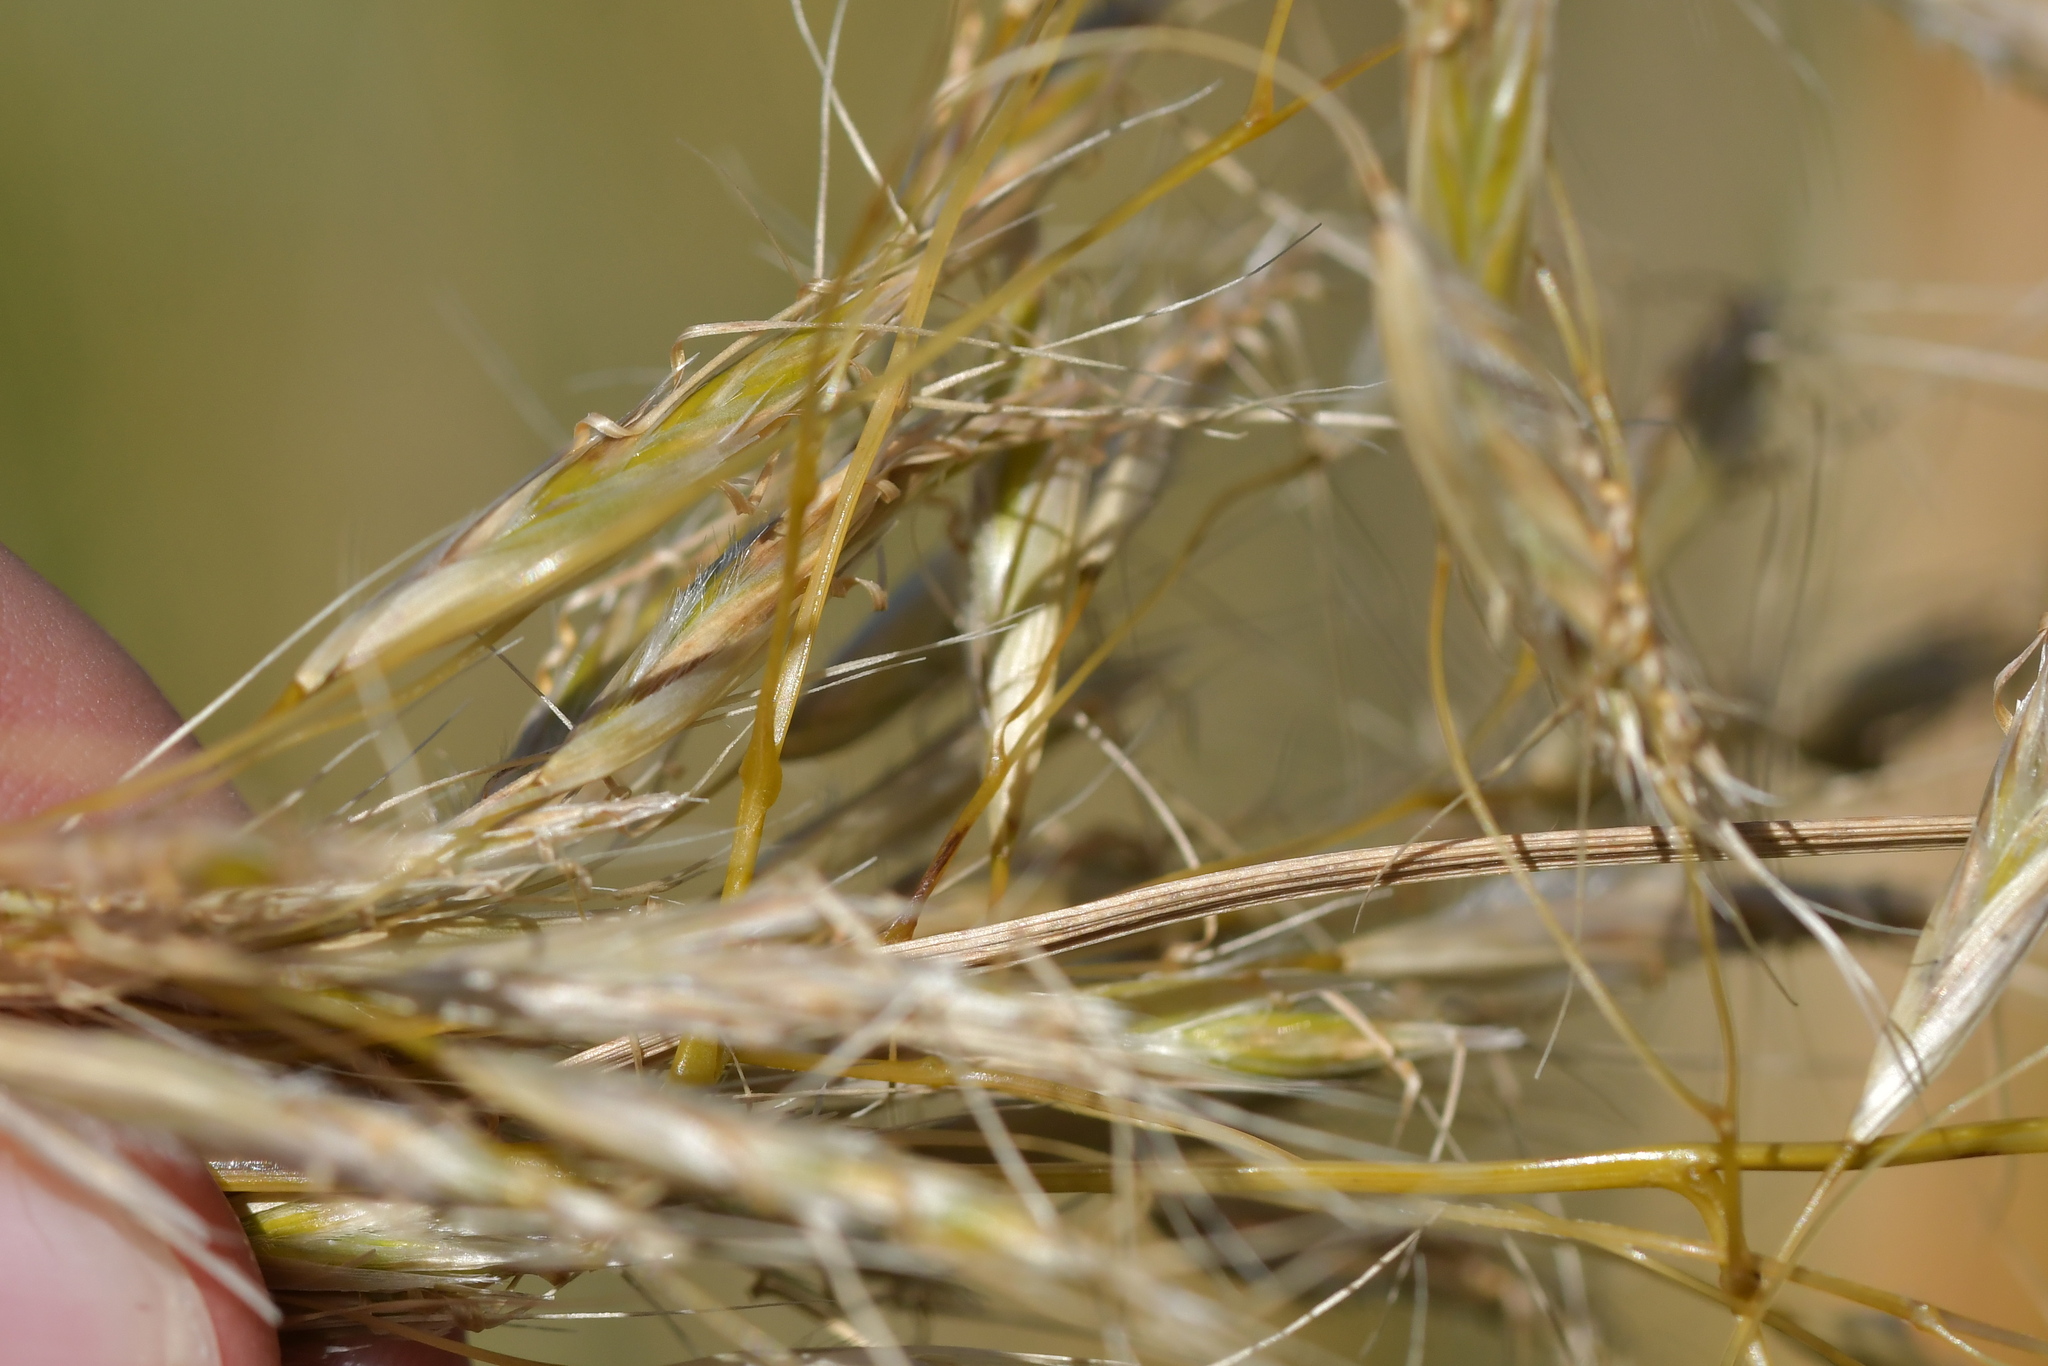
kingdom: Plantae
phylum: Tracheophyta
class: Liliopsida
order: Poales
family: Poaceae
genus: Chionochloa
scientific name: Chionochloa flavescens
